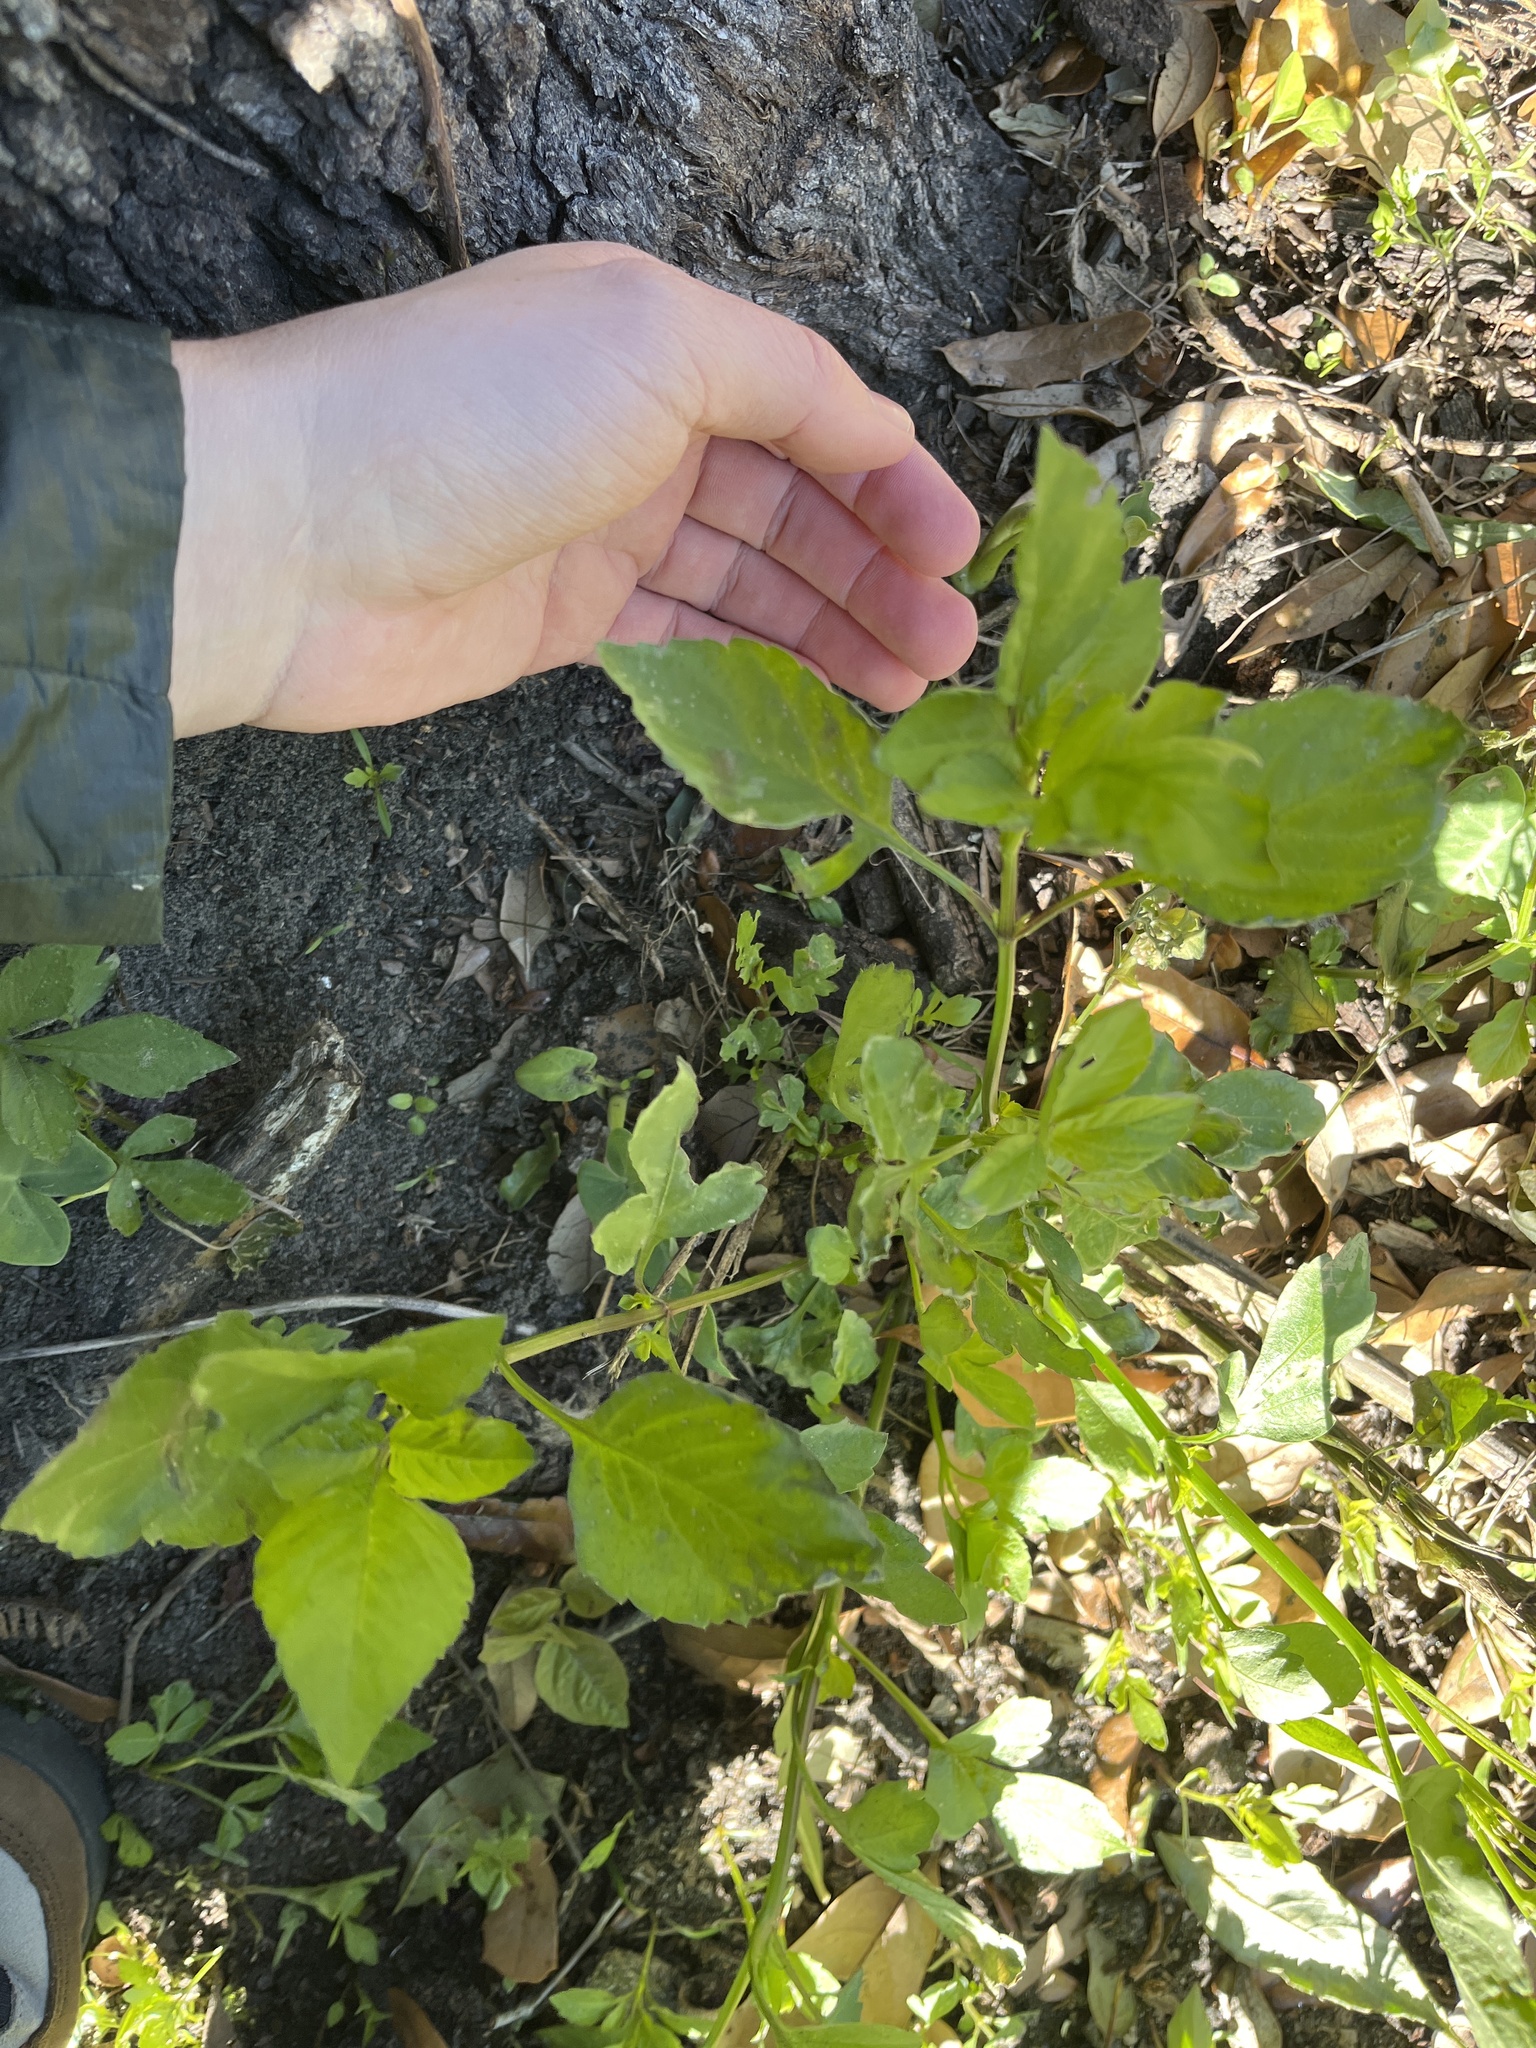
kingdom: Plantae
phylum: Tracheophyta
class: Magnoliopsida
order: Asterales
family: Asteraceae
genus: Bidens
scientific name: Bidens alba
